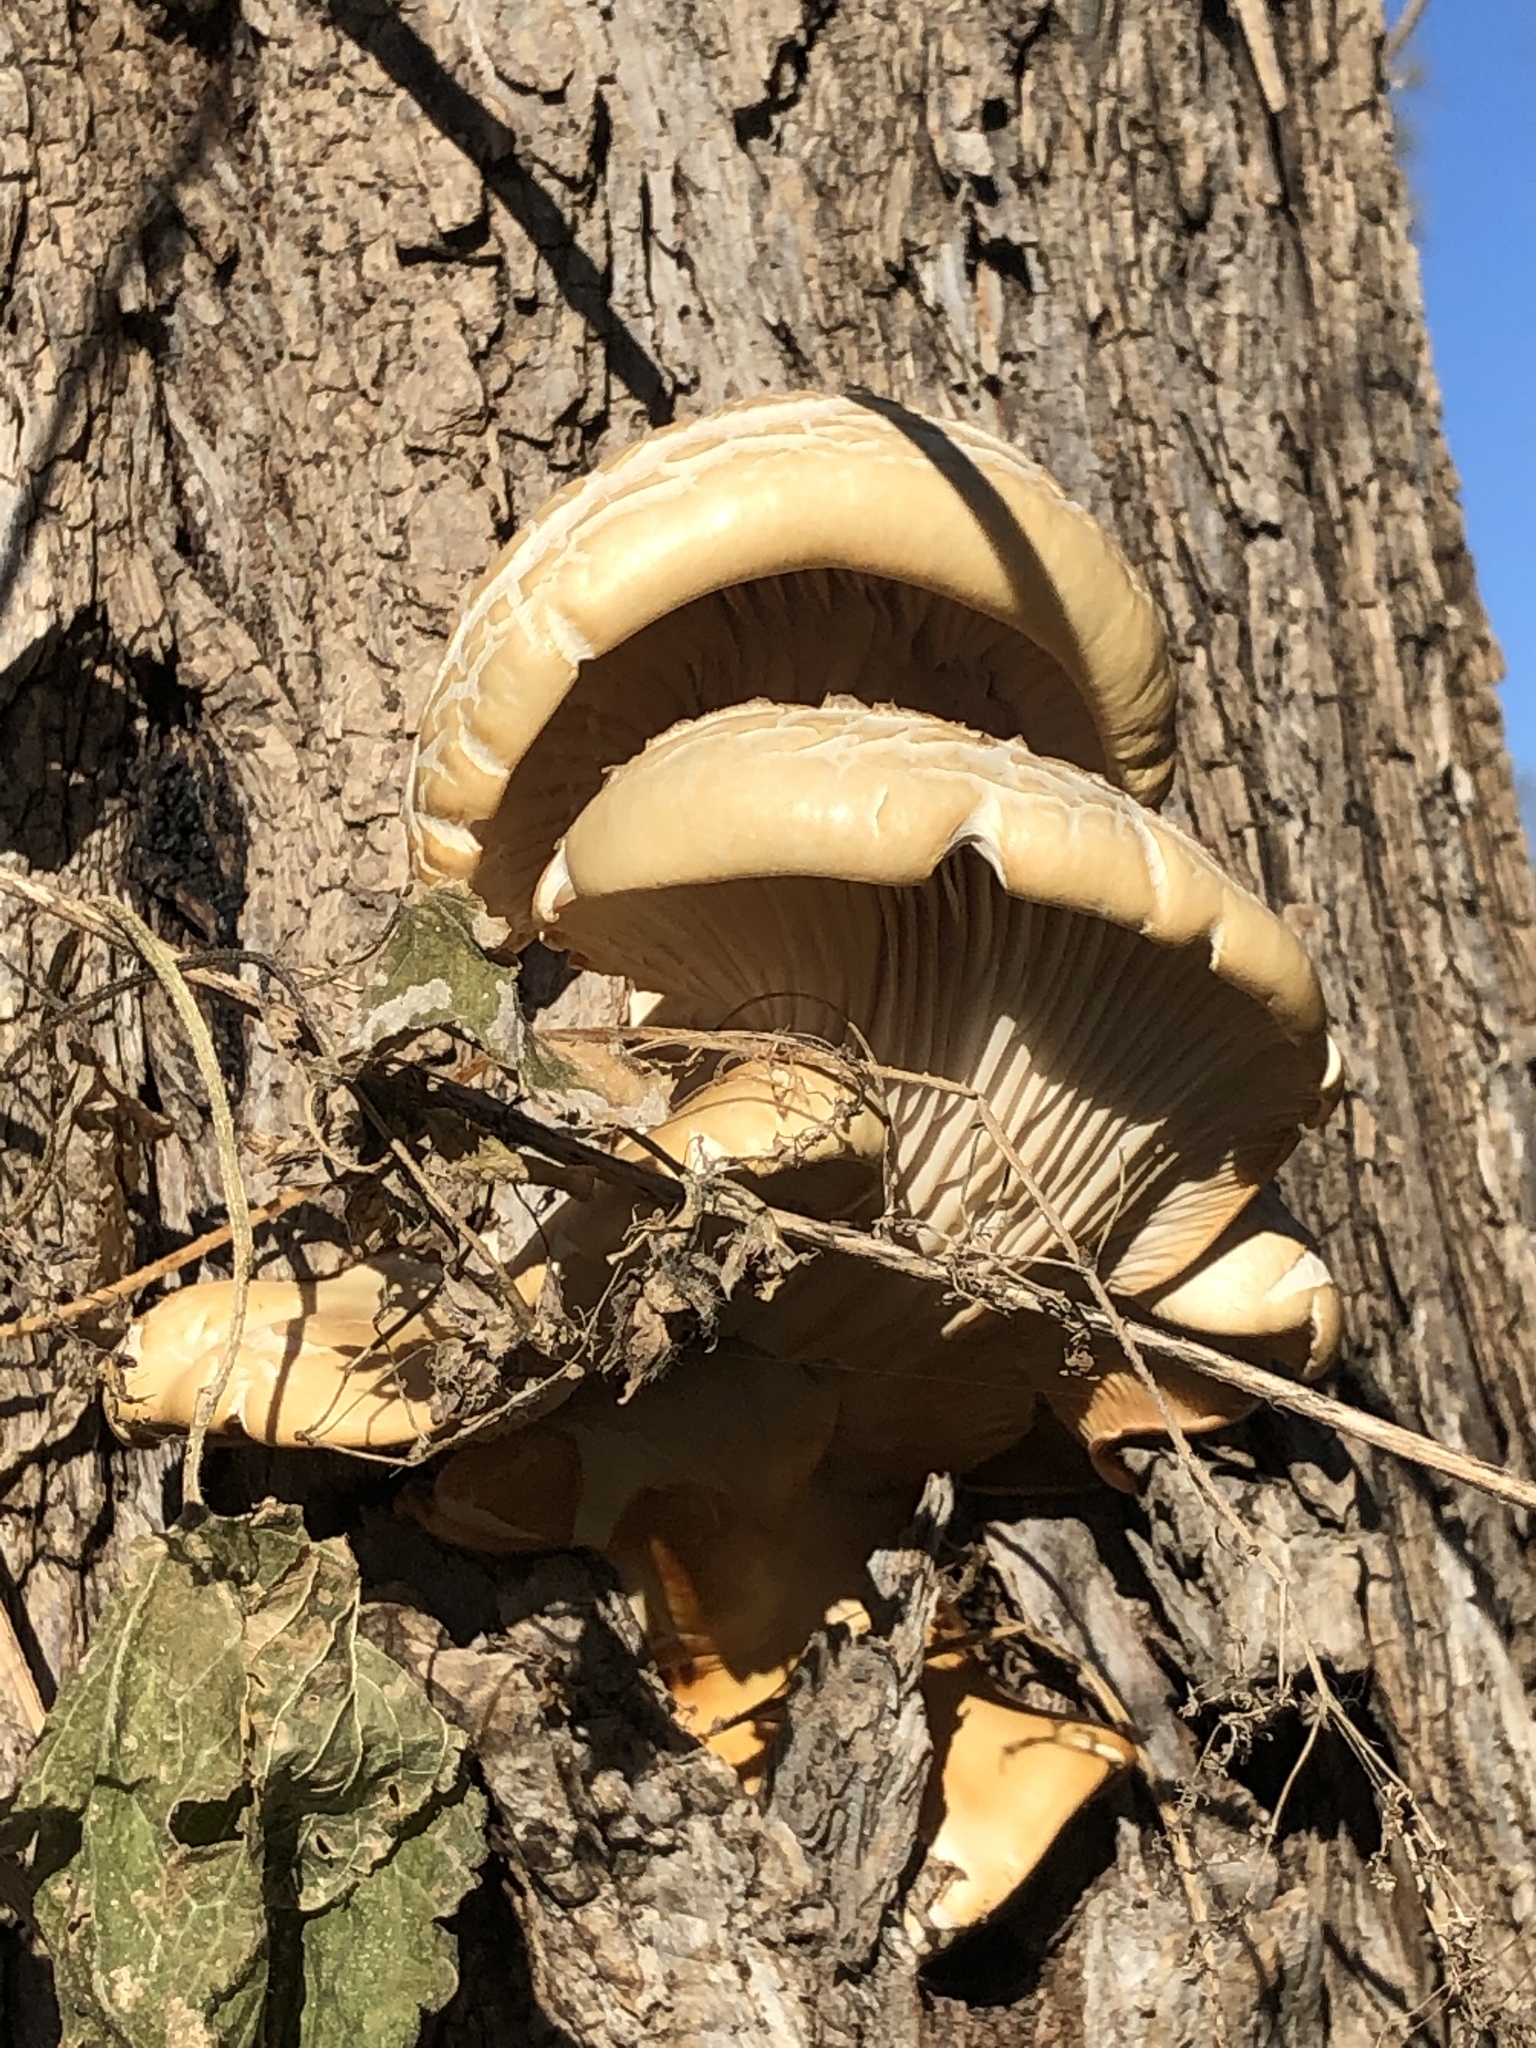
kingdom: Fungi
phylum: Basidiomycota
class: Agaricomycetes
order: Agaricales
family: Pleurotaceae
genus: Pleurotus
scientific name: Pleurotus ostreatus
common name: Oyster mushroom
